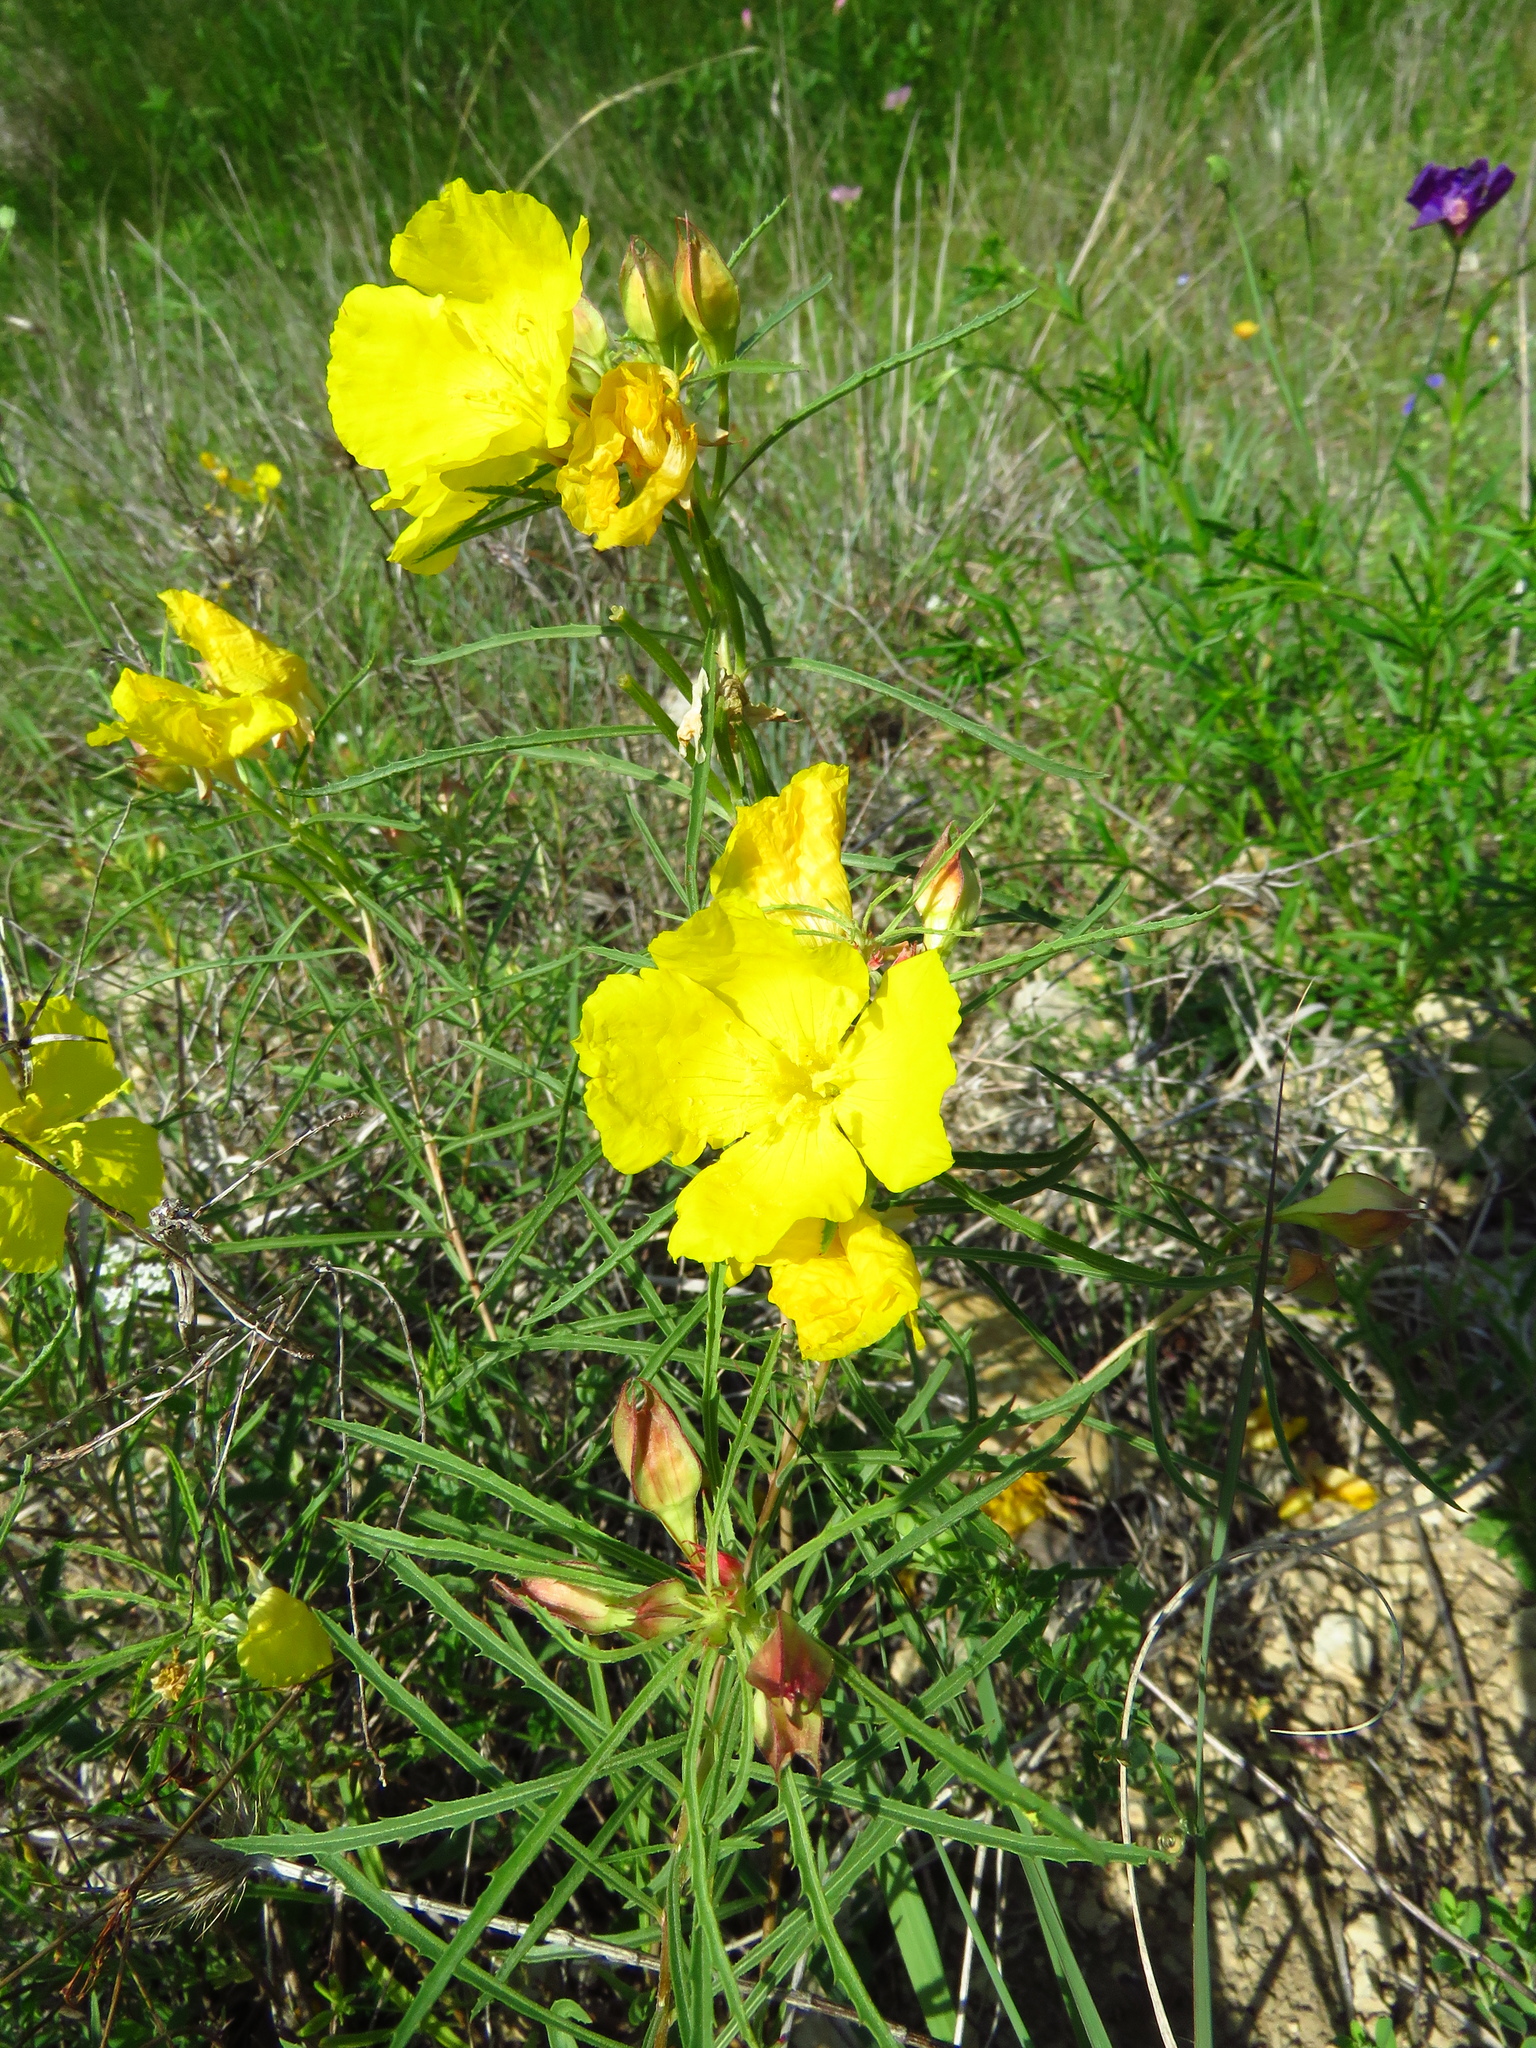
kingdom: Plantae
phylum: Tracheophyta
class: Magnoliopsida
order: Myrtales
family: Onagraceae
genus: Oenothera
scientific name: Oenothera
